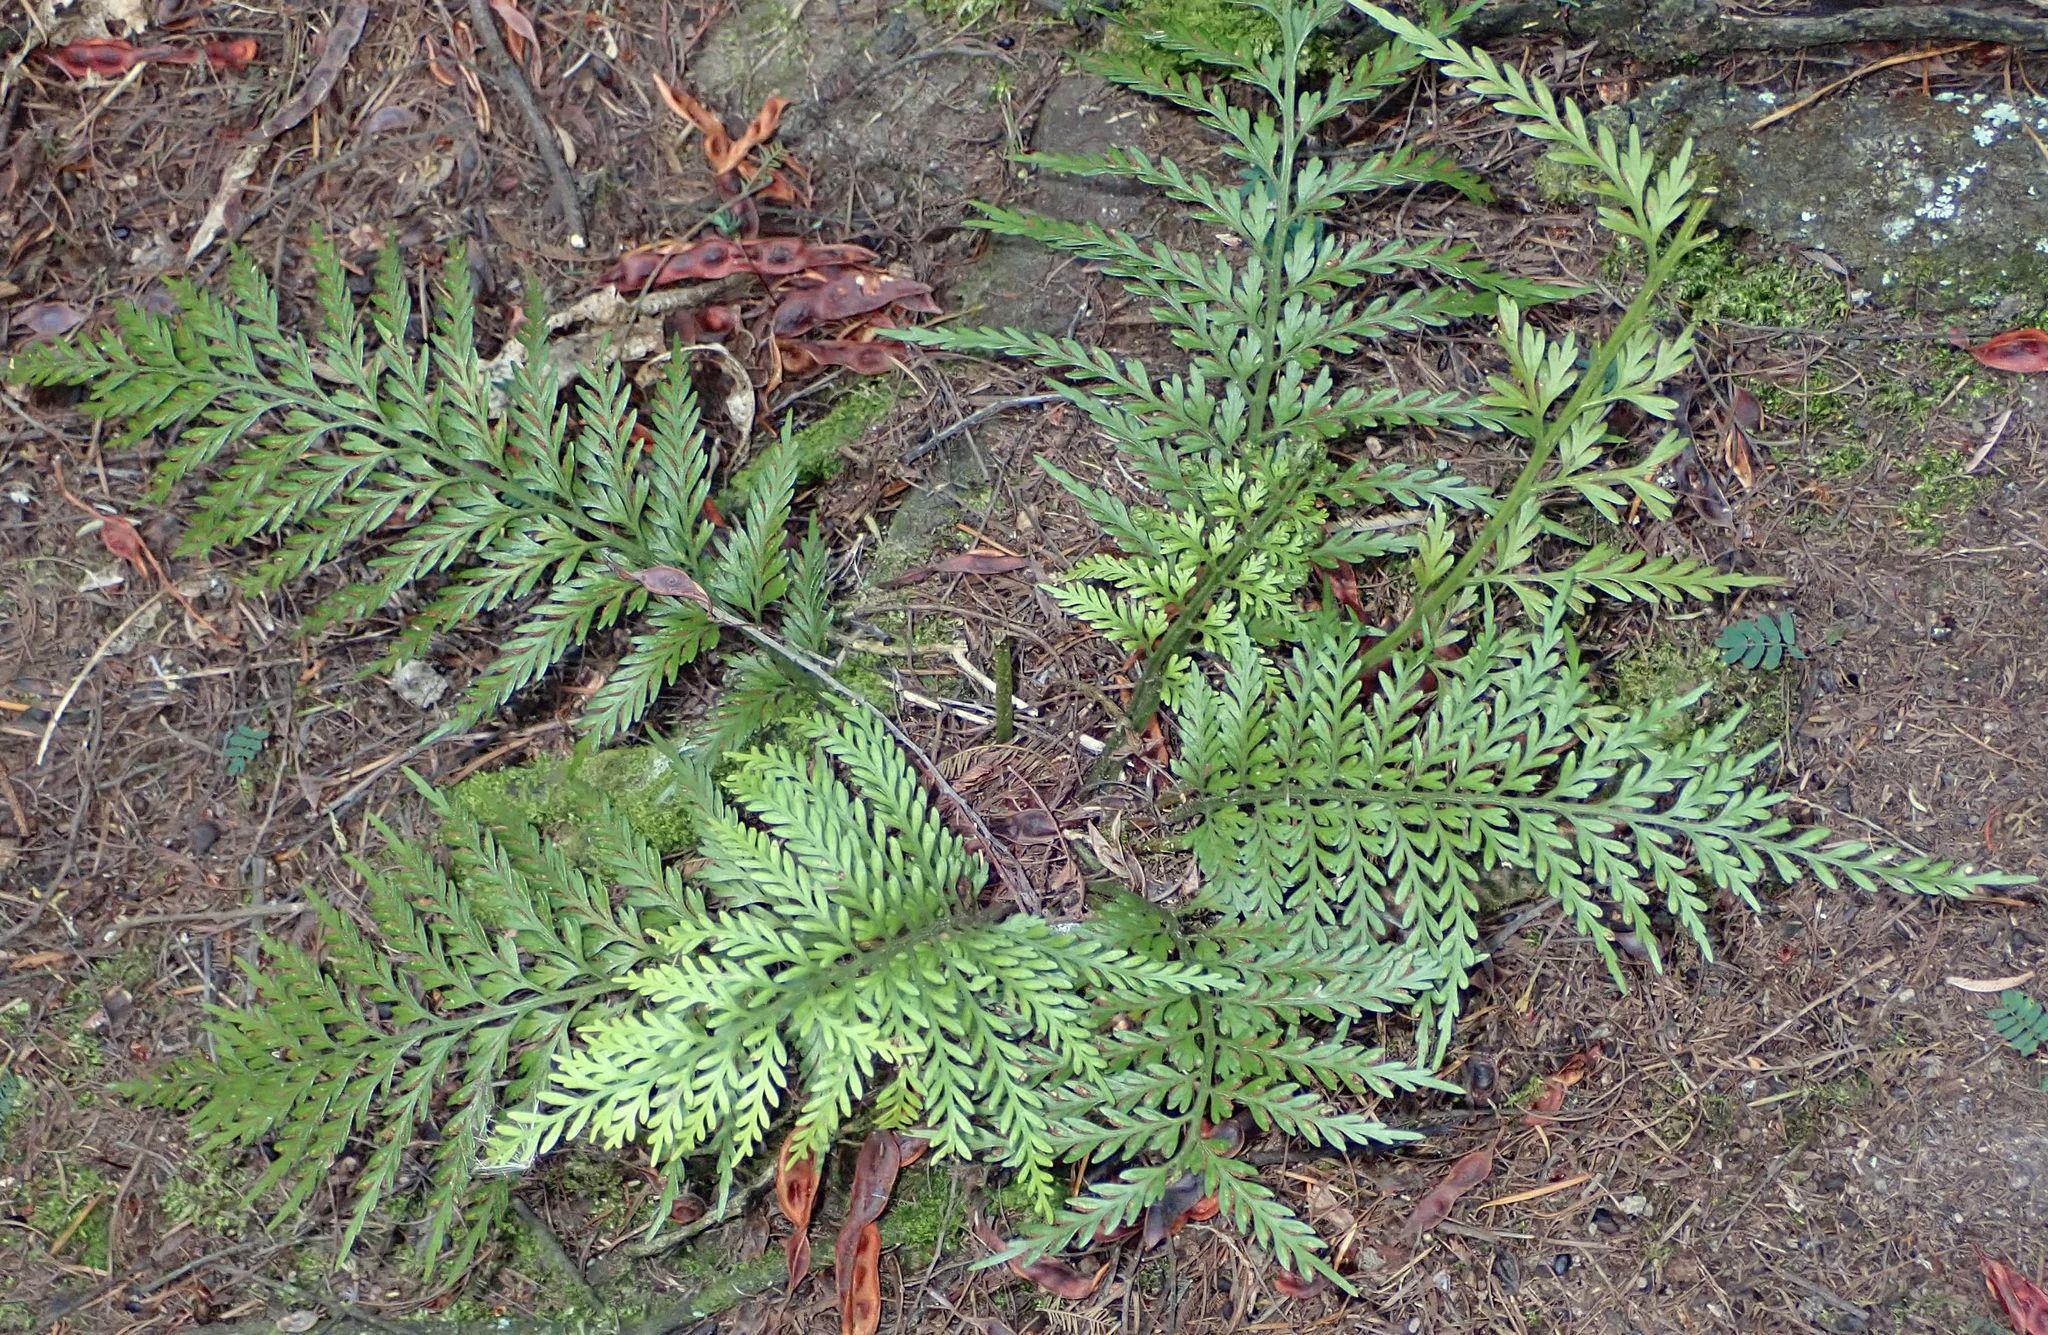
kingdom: Plantae
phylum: Tracheophyta
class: Polypodiopsida
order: Polypodiales
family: Aspleniaceae
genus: Asplenium
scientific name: Asplenium appendiculatum
